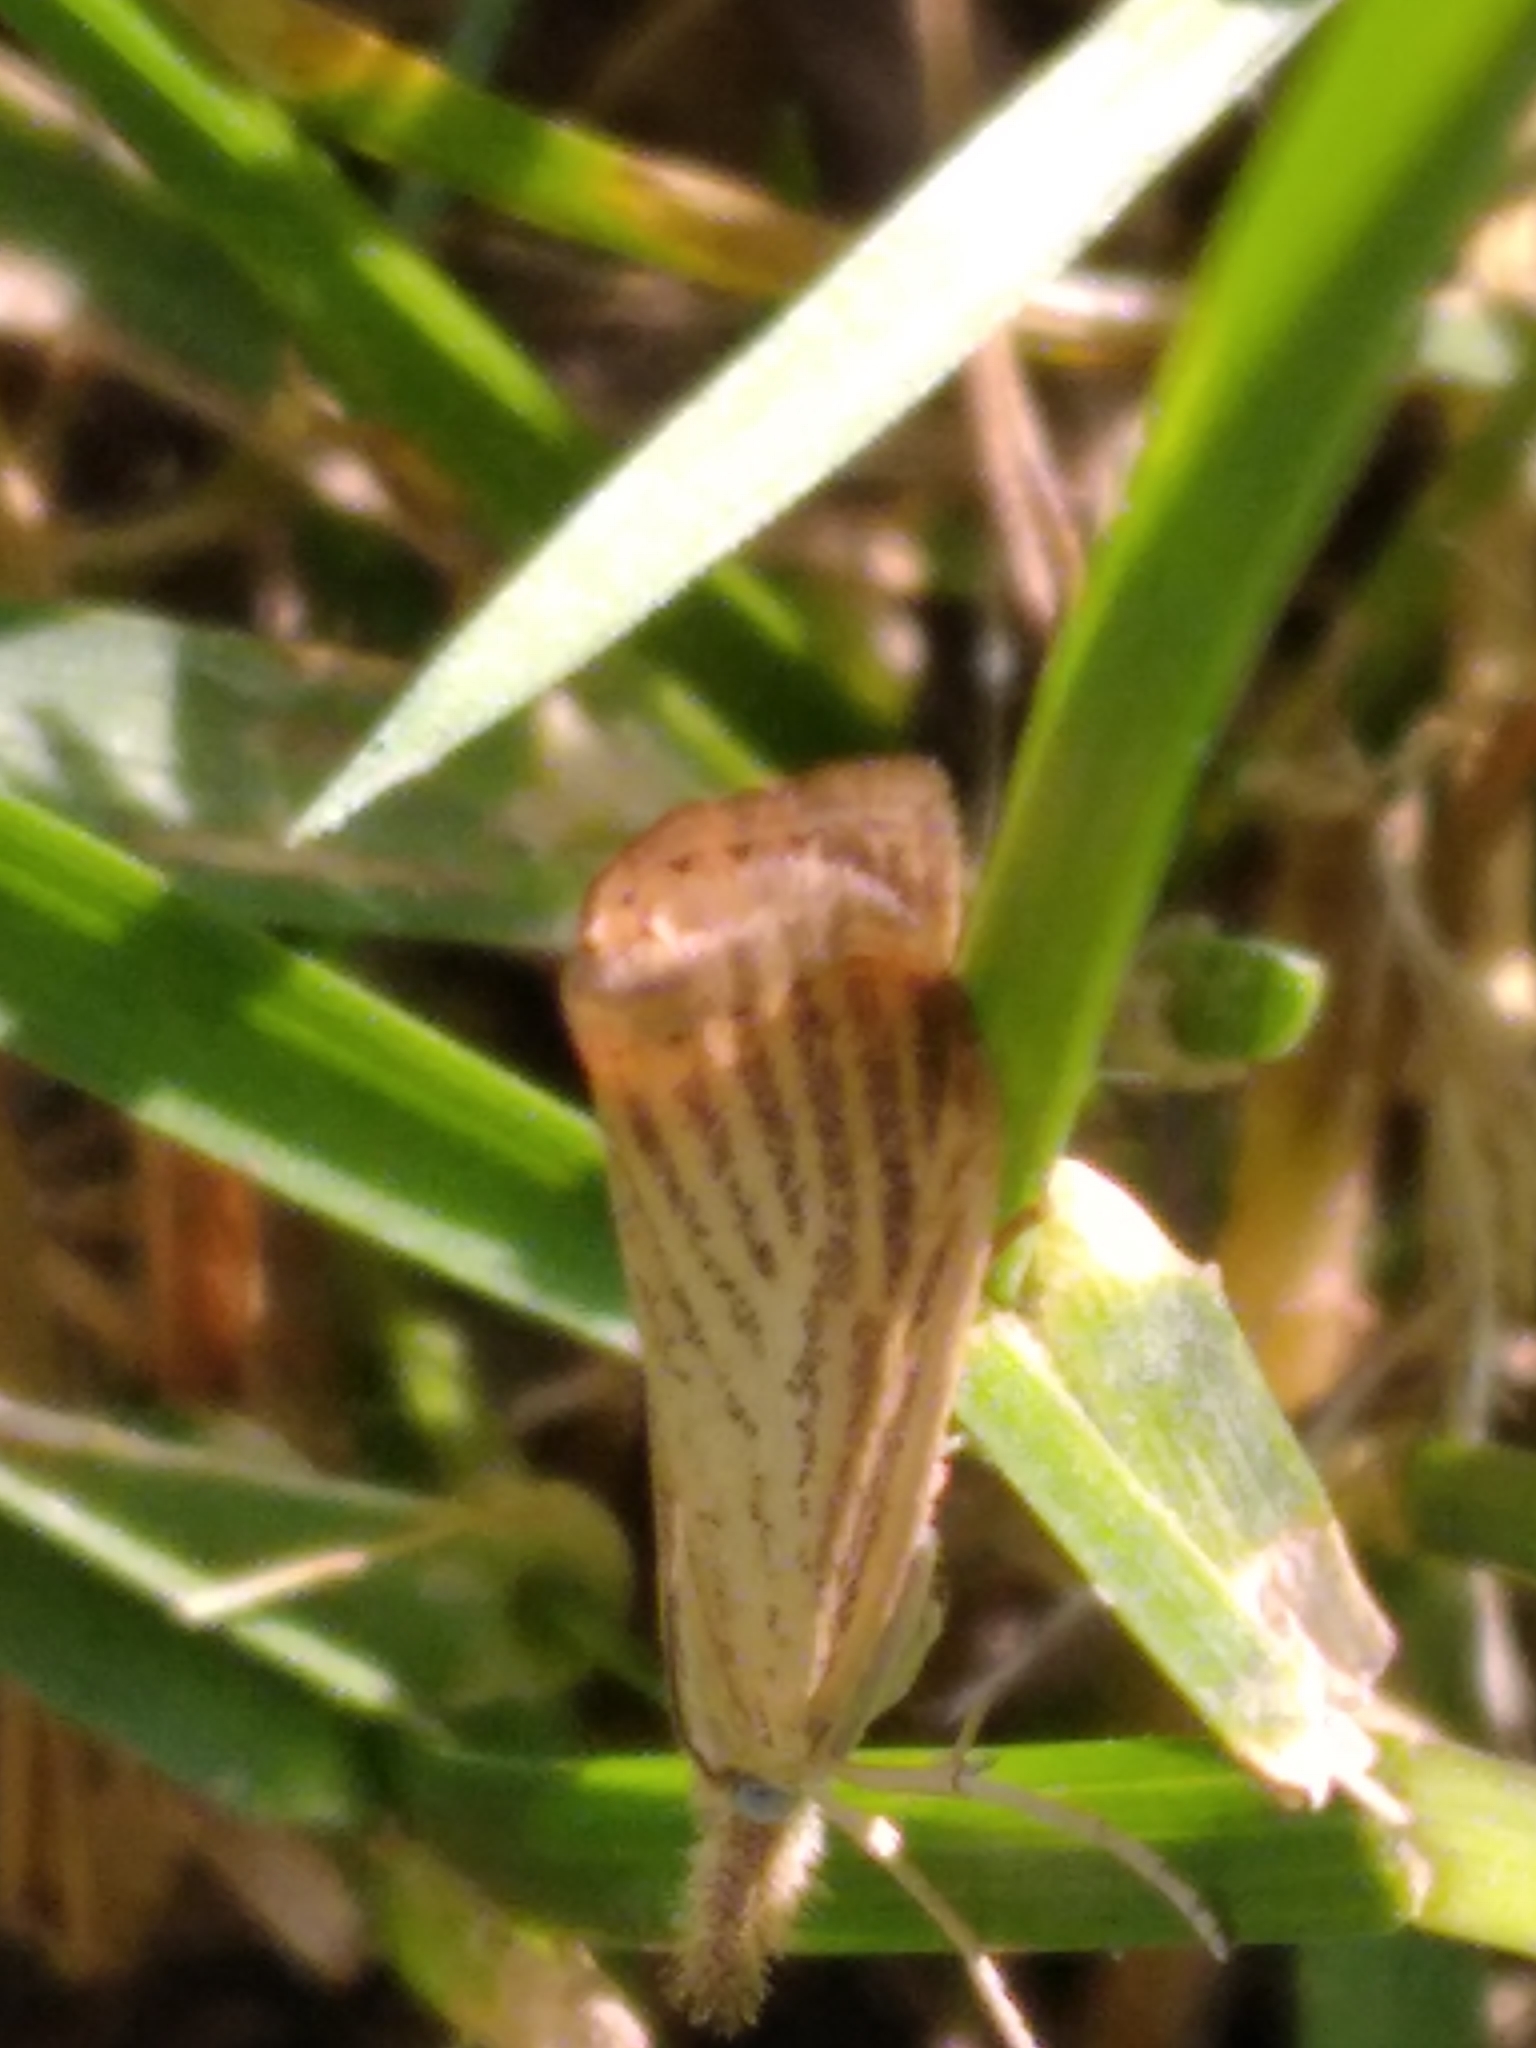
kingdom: Animalia
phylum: Arthropoda
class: Insecta
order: Lepidoptera
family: Crambidae
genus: Agriphila
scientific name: Agriphila straminella
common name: Straw grass-veneer
